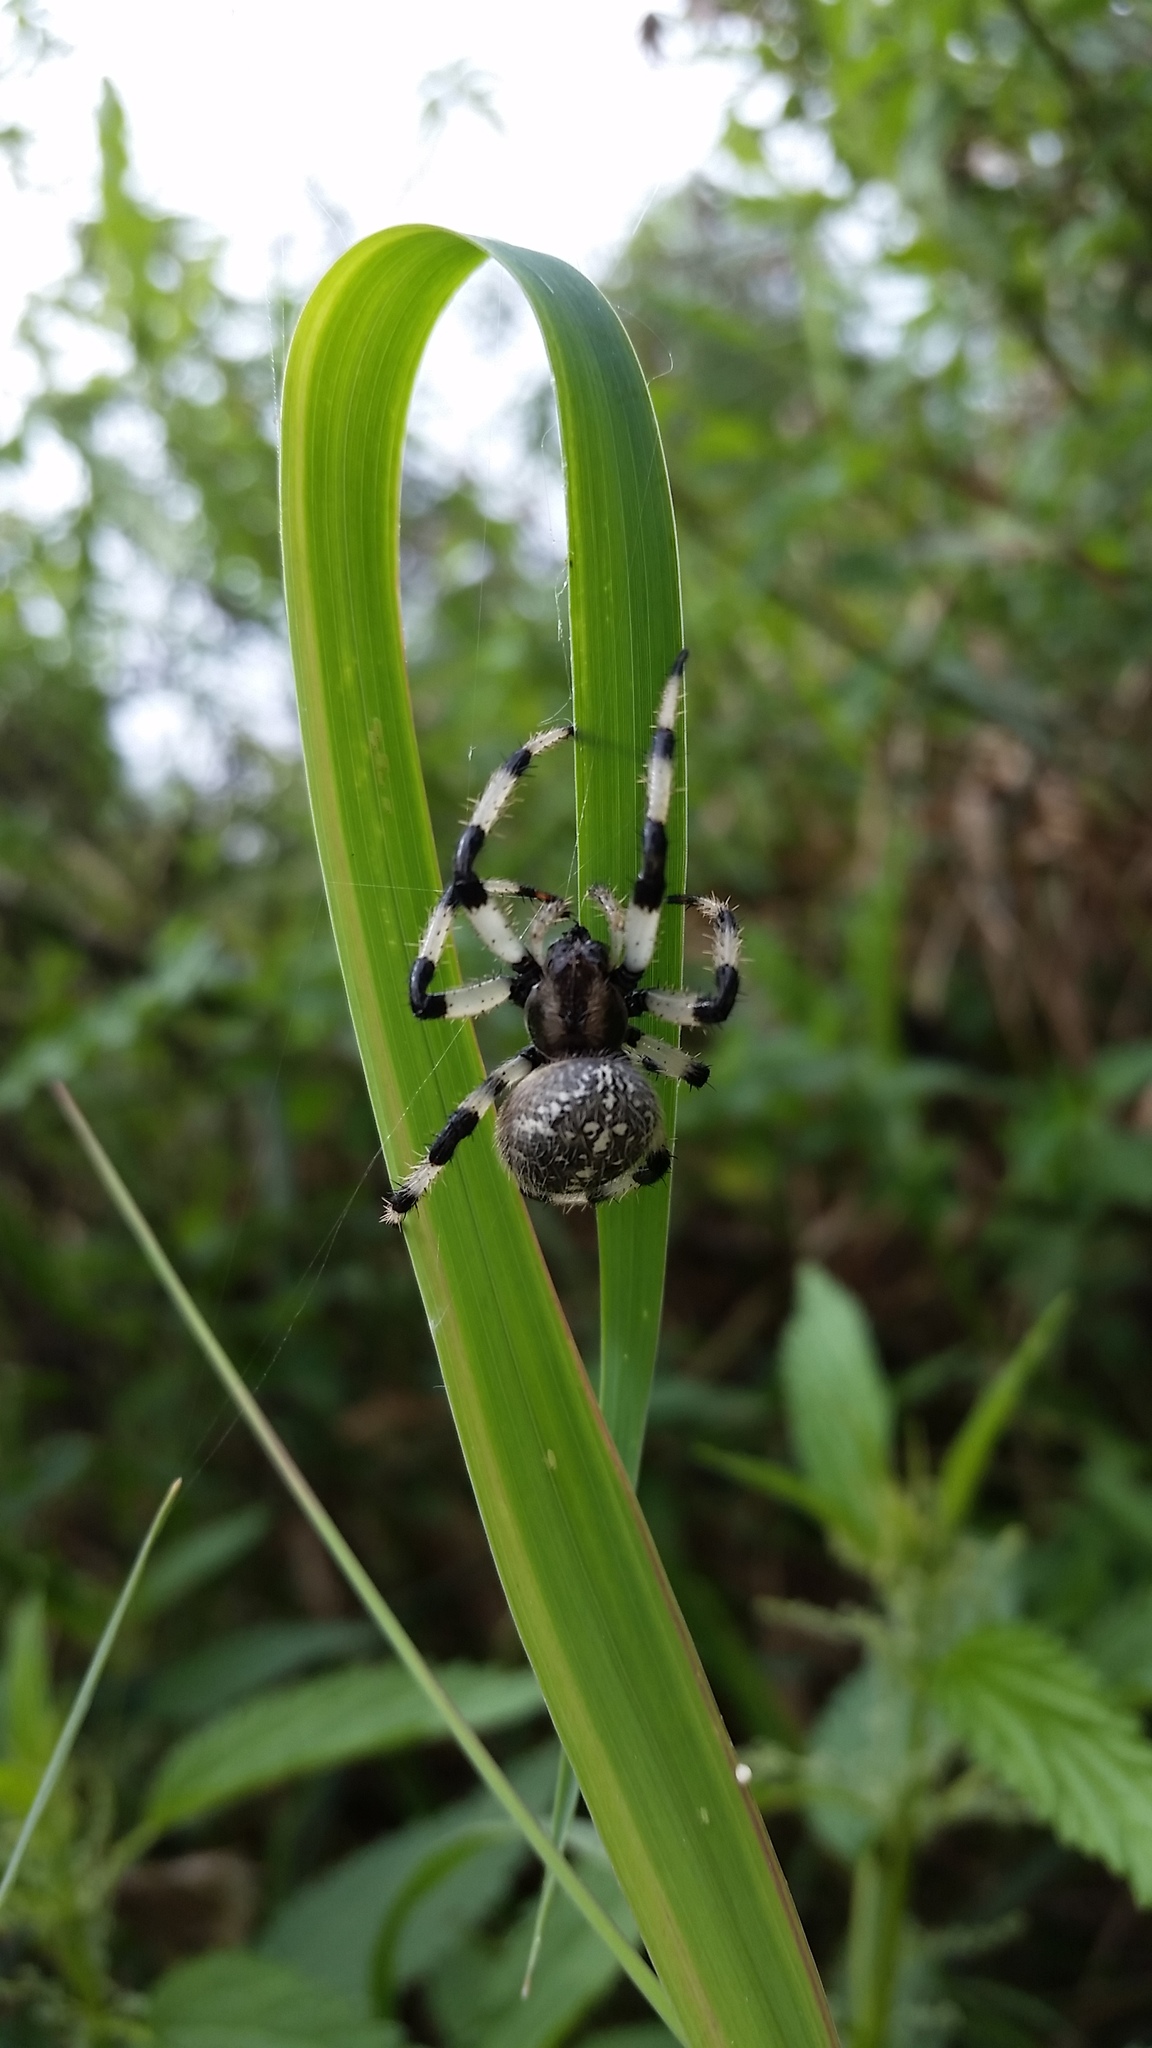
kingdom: Animalia
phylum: Arthropoda
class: Arachnida
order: Araneae
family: Araneidae
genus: Araneus
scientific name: Araneus trifolium
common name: Shamrock orbweaver
